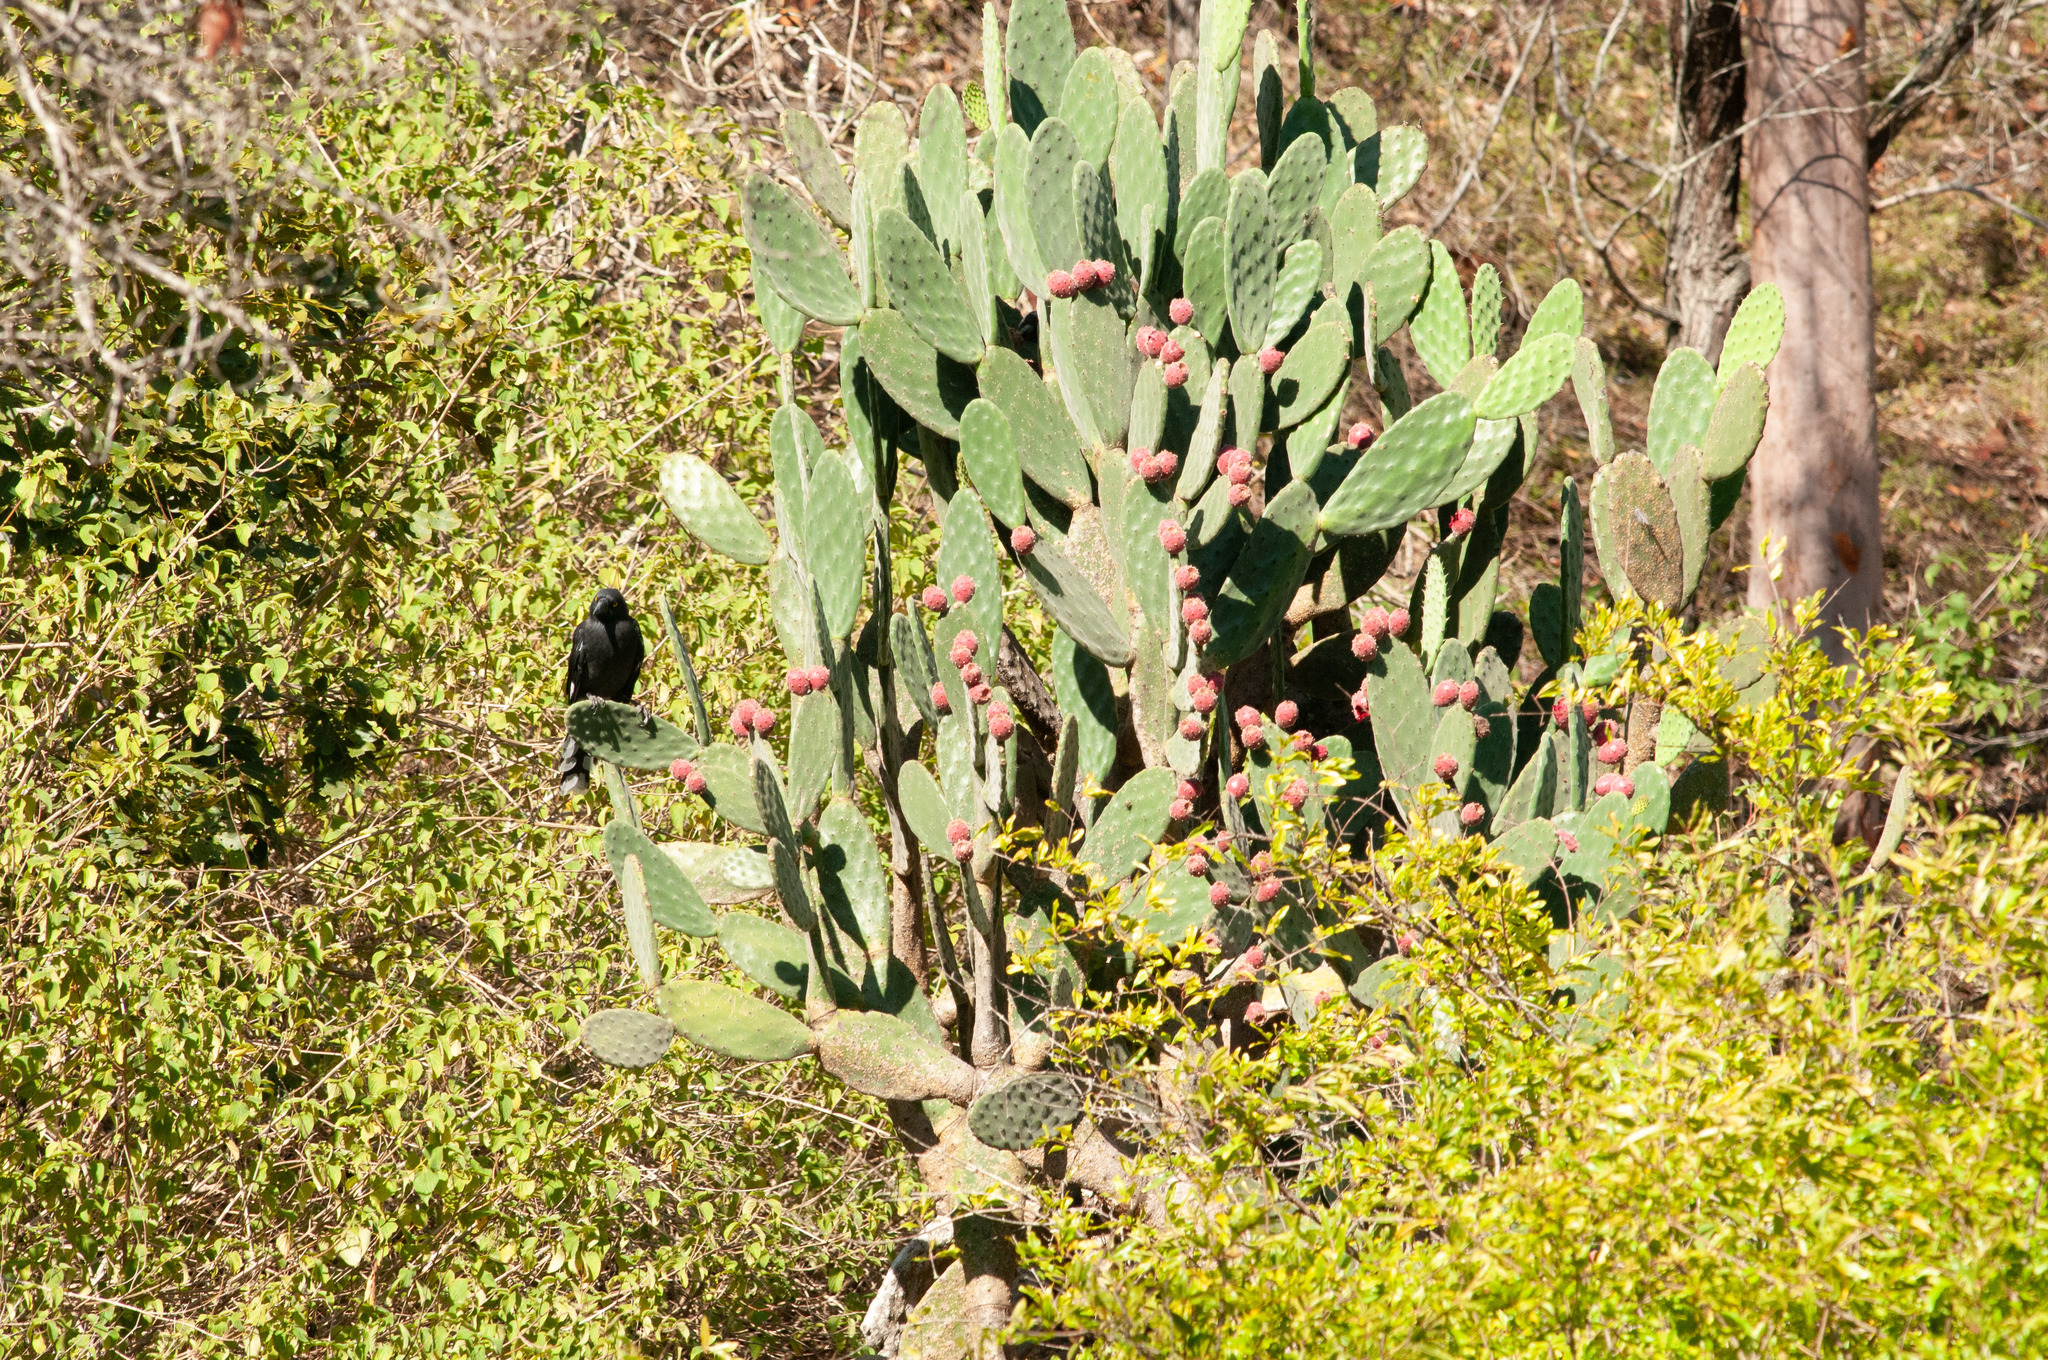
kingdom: Plantae
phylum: Tracheophyta
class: Magnoliopsida
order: Caryophyllales
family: Cactaceae
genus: Opuntia
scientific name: Opuntia tomentosa
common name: Woollyjoint pricklypear
